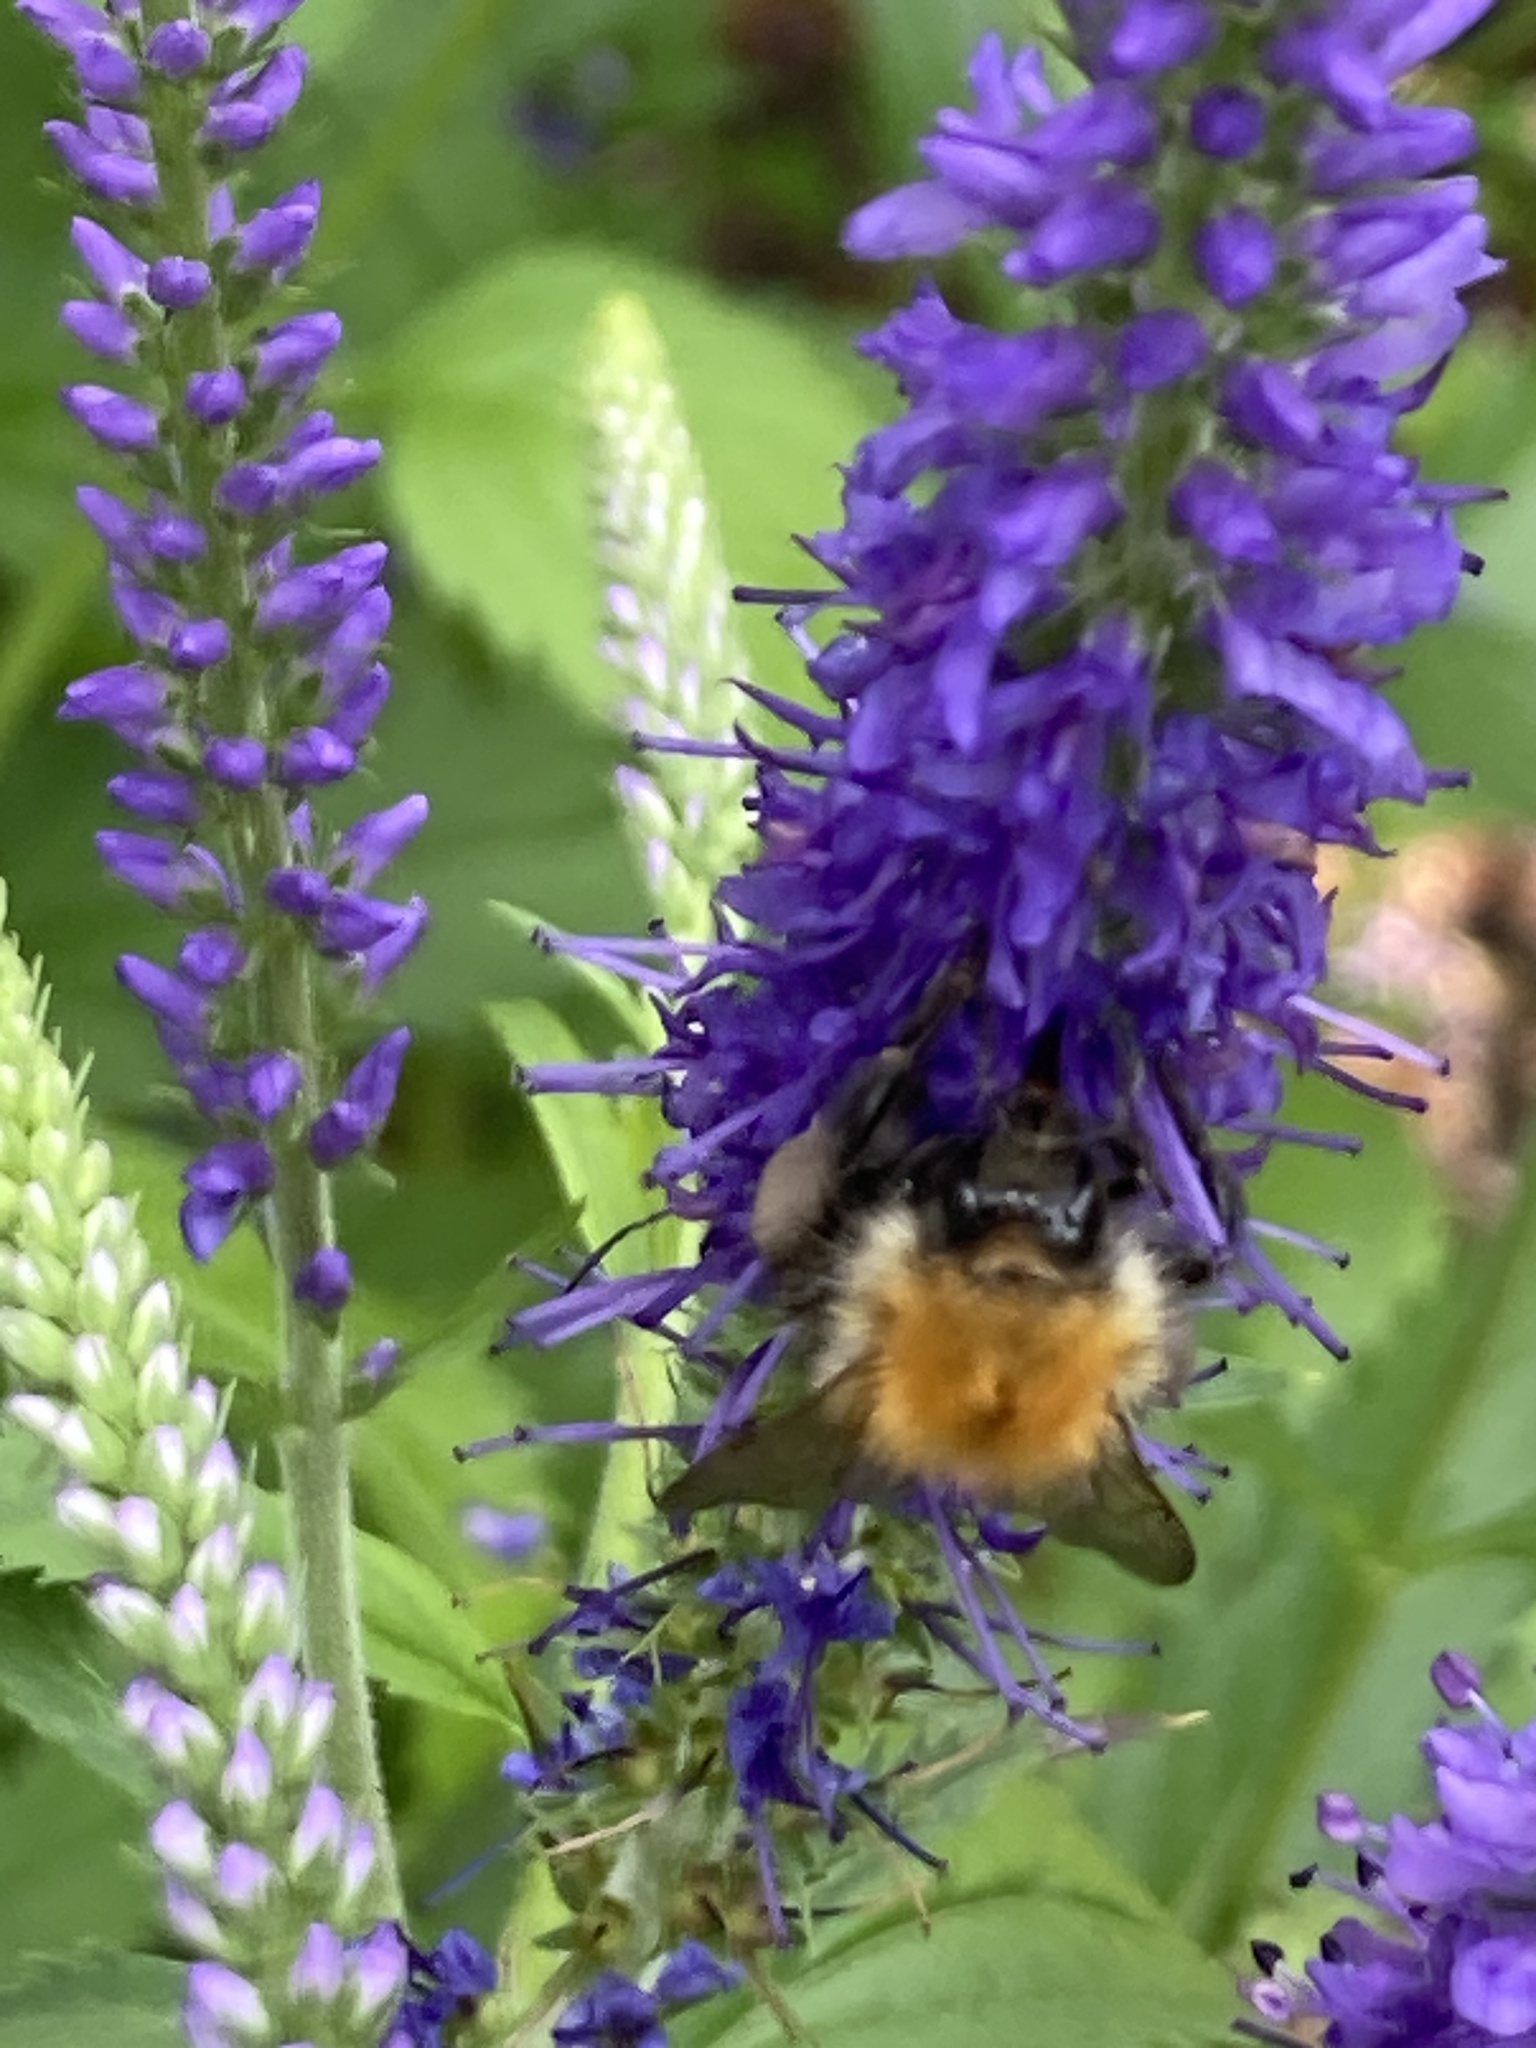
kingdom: Animalia
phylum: Arthropoda
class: Insecta
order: Hymenoptera
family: Apidae
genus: Bombus
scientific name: Bombus pascuorum
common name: Common carder bee
